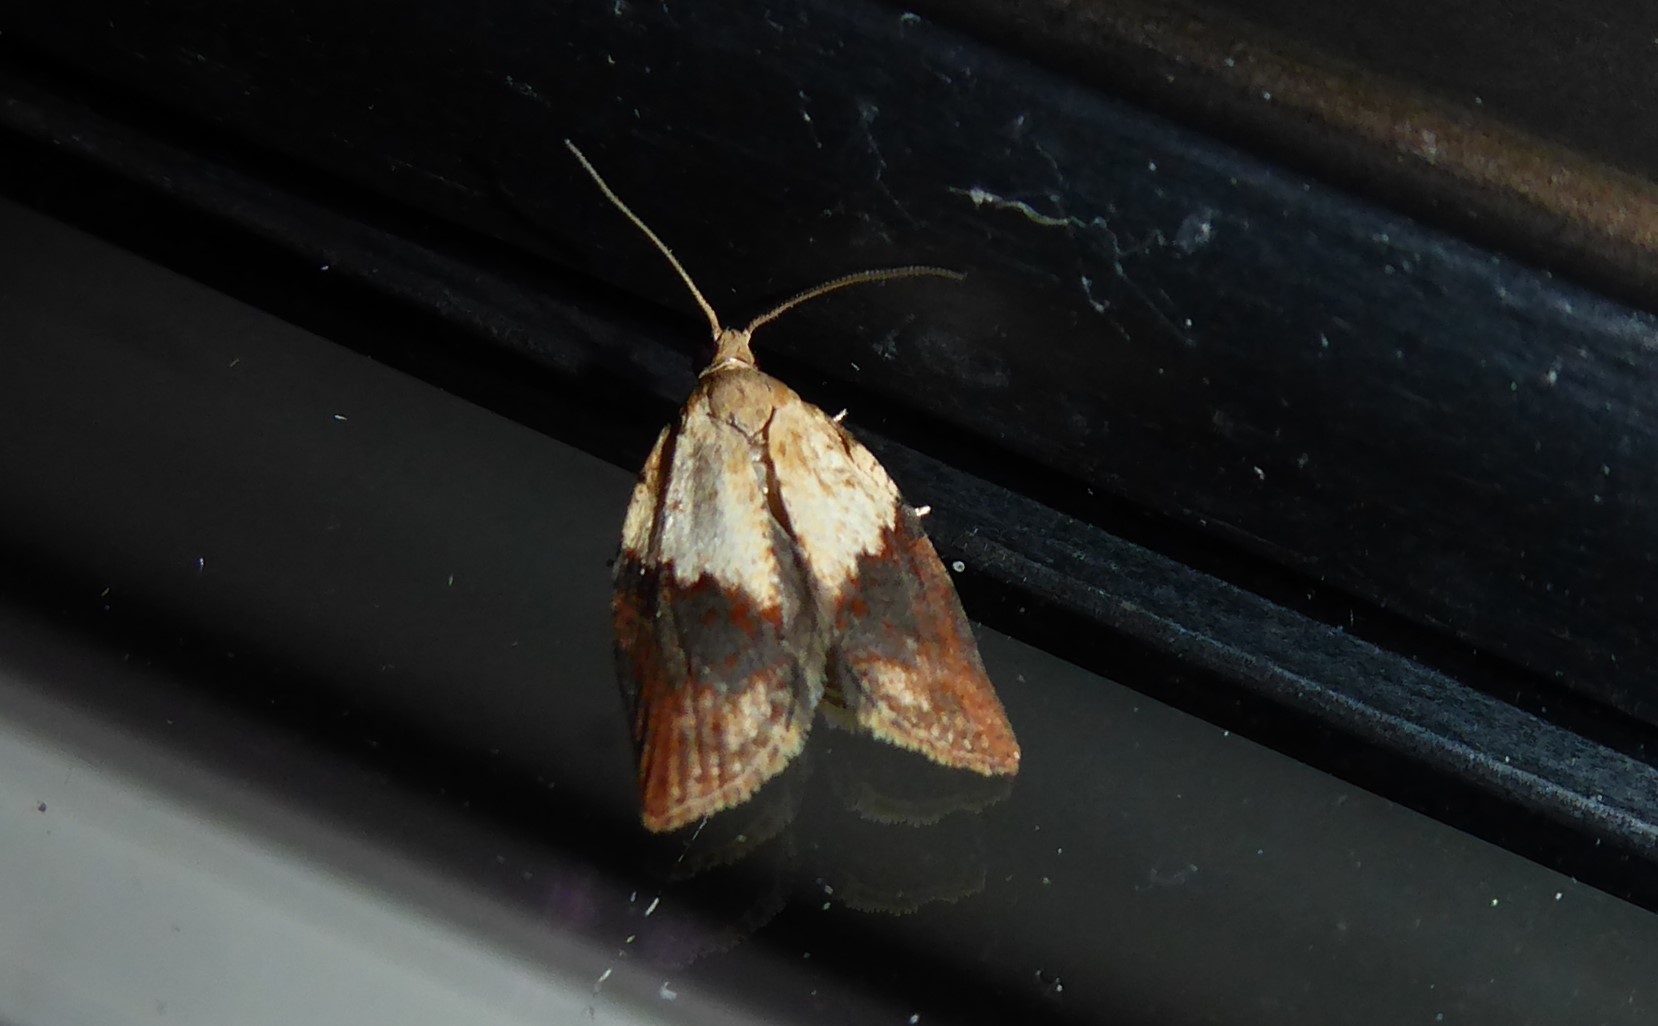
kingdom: Animalia
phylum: Arthropoda
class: Insecta
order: Lepidoptera
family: Tortricidae
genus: Epiphyas
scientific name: Epiphyas postvittana
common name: Light brown apple moth
